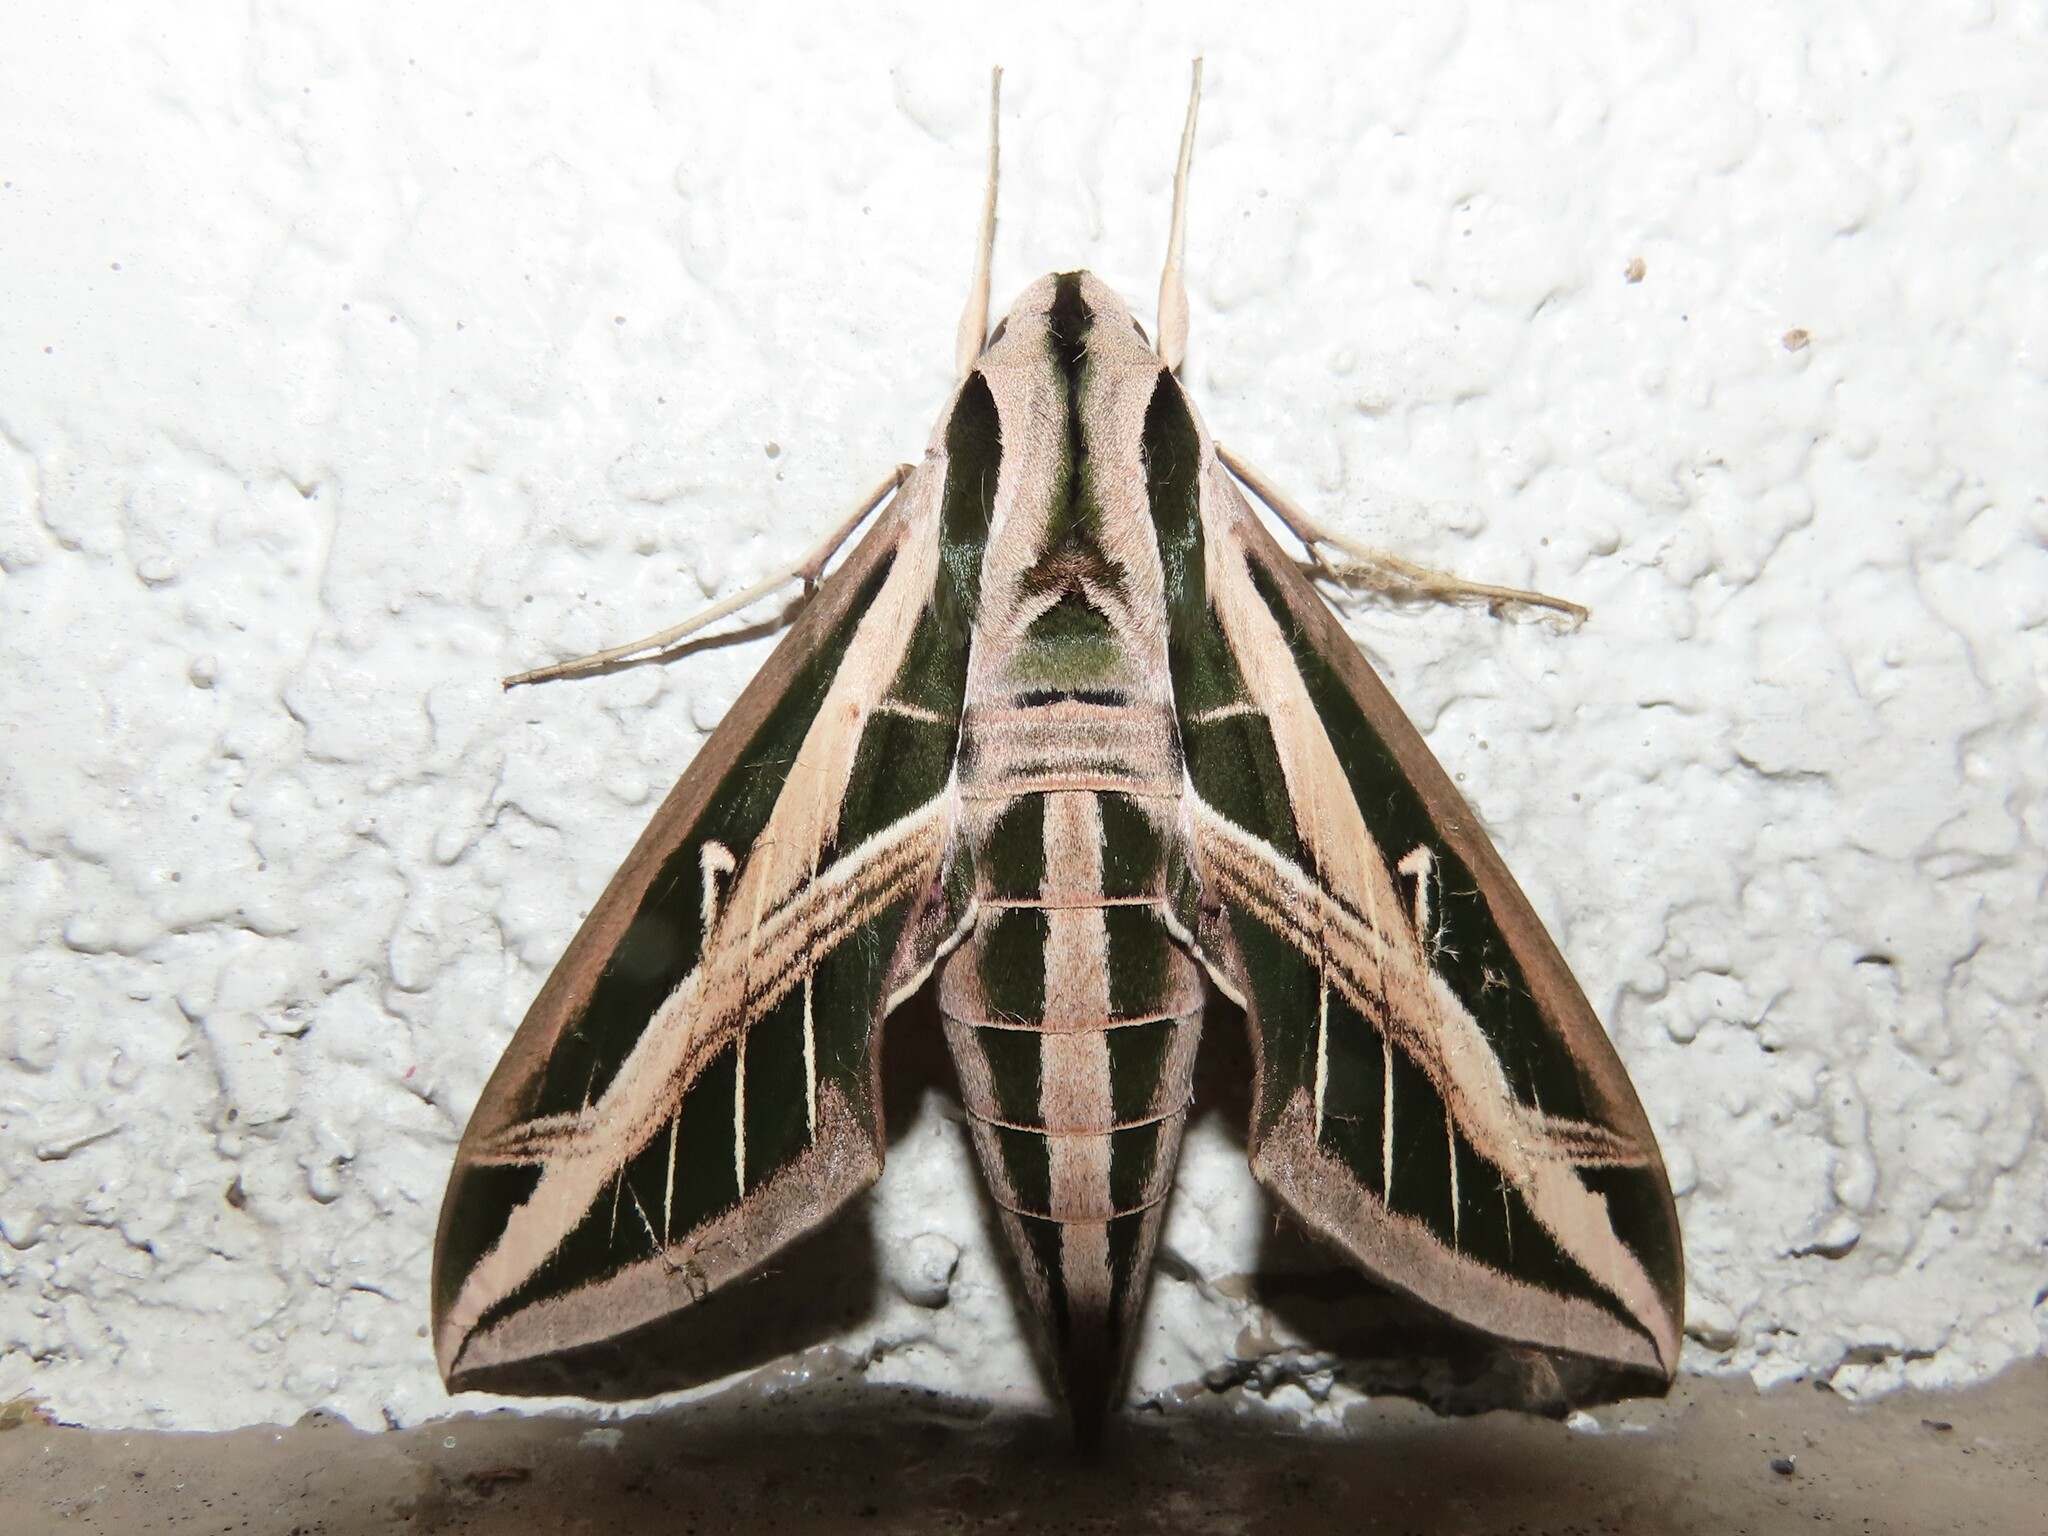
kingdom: Animalia
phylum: Arthropoda
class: Insecta
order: Lepidoptera
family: Sphingidae
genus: Eumorpha
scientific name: Eumorpha fasciatus
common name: Banded sphinx
